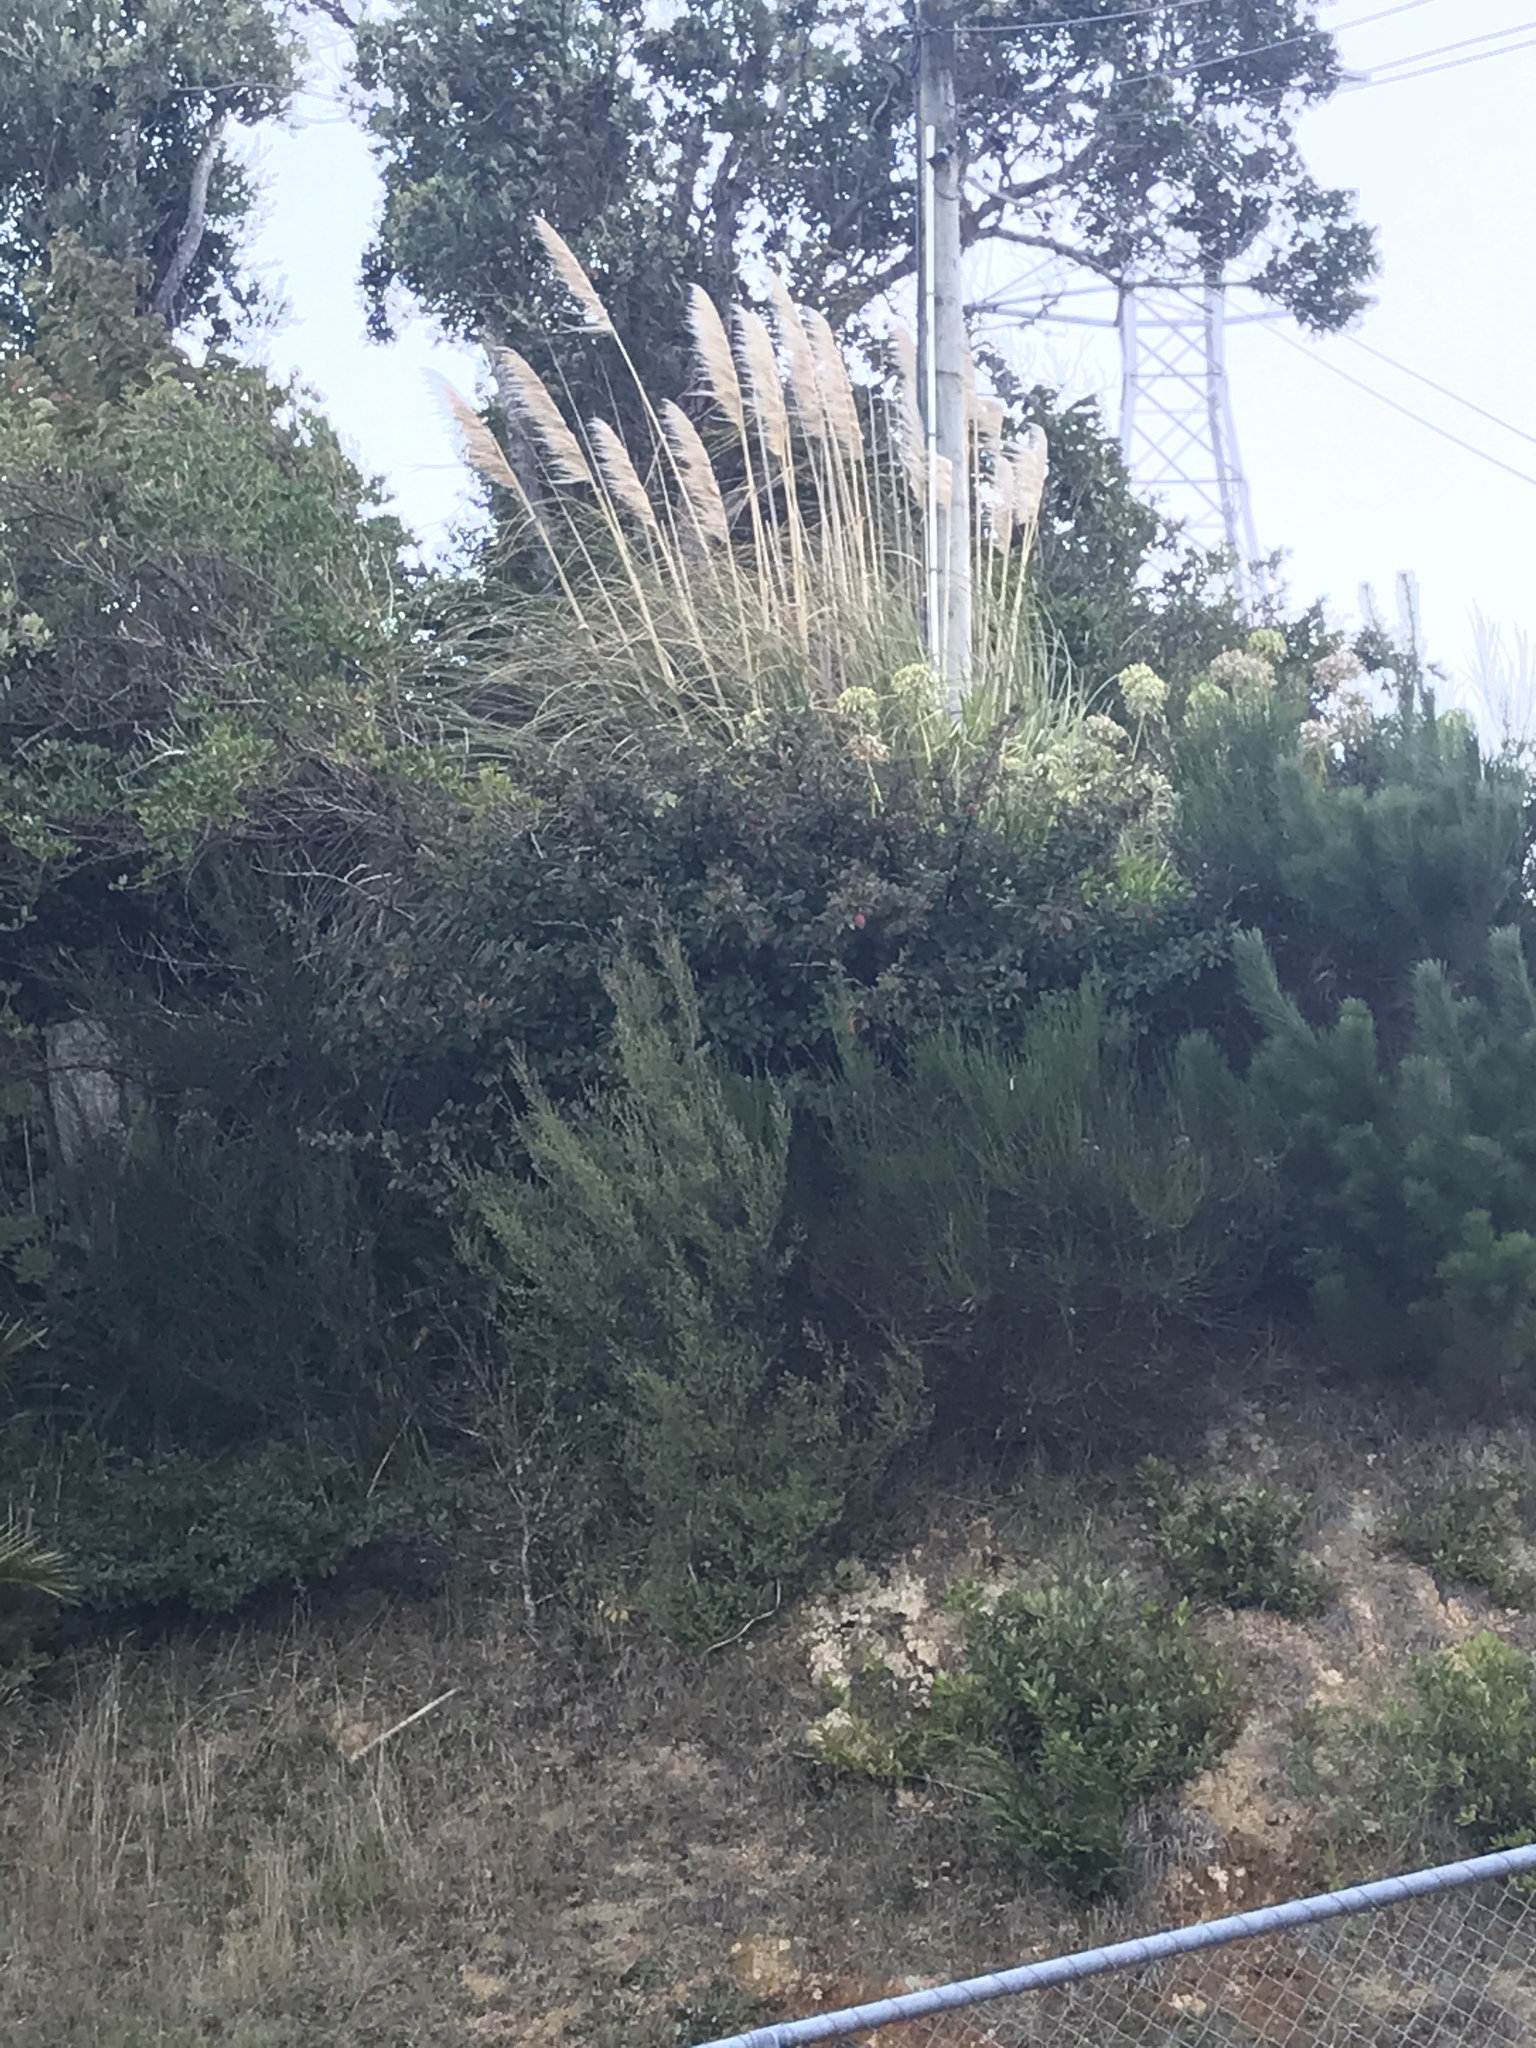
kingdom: Plantae
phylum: Tracheophyta
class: Liliopsida
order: Poales
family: Poaceae
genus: Cortaderia
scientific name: Cortaderia selloana
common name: Uruguayan pampas grass
